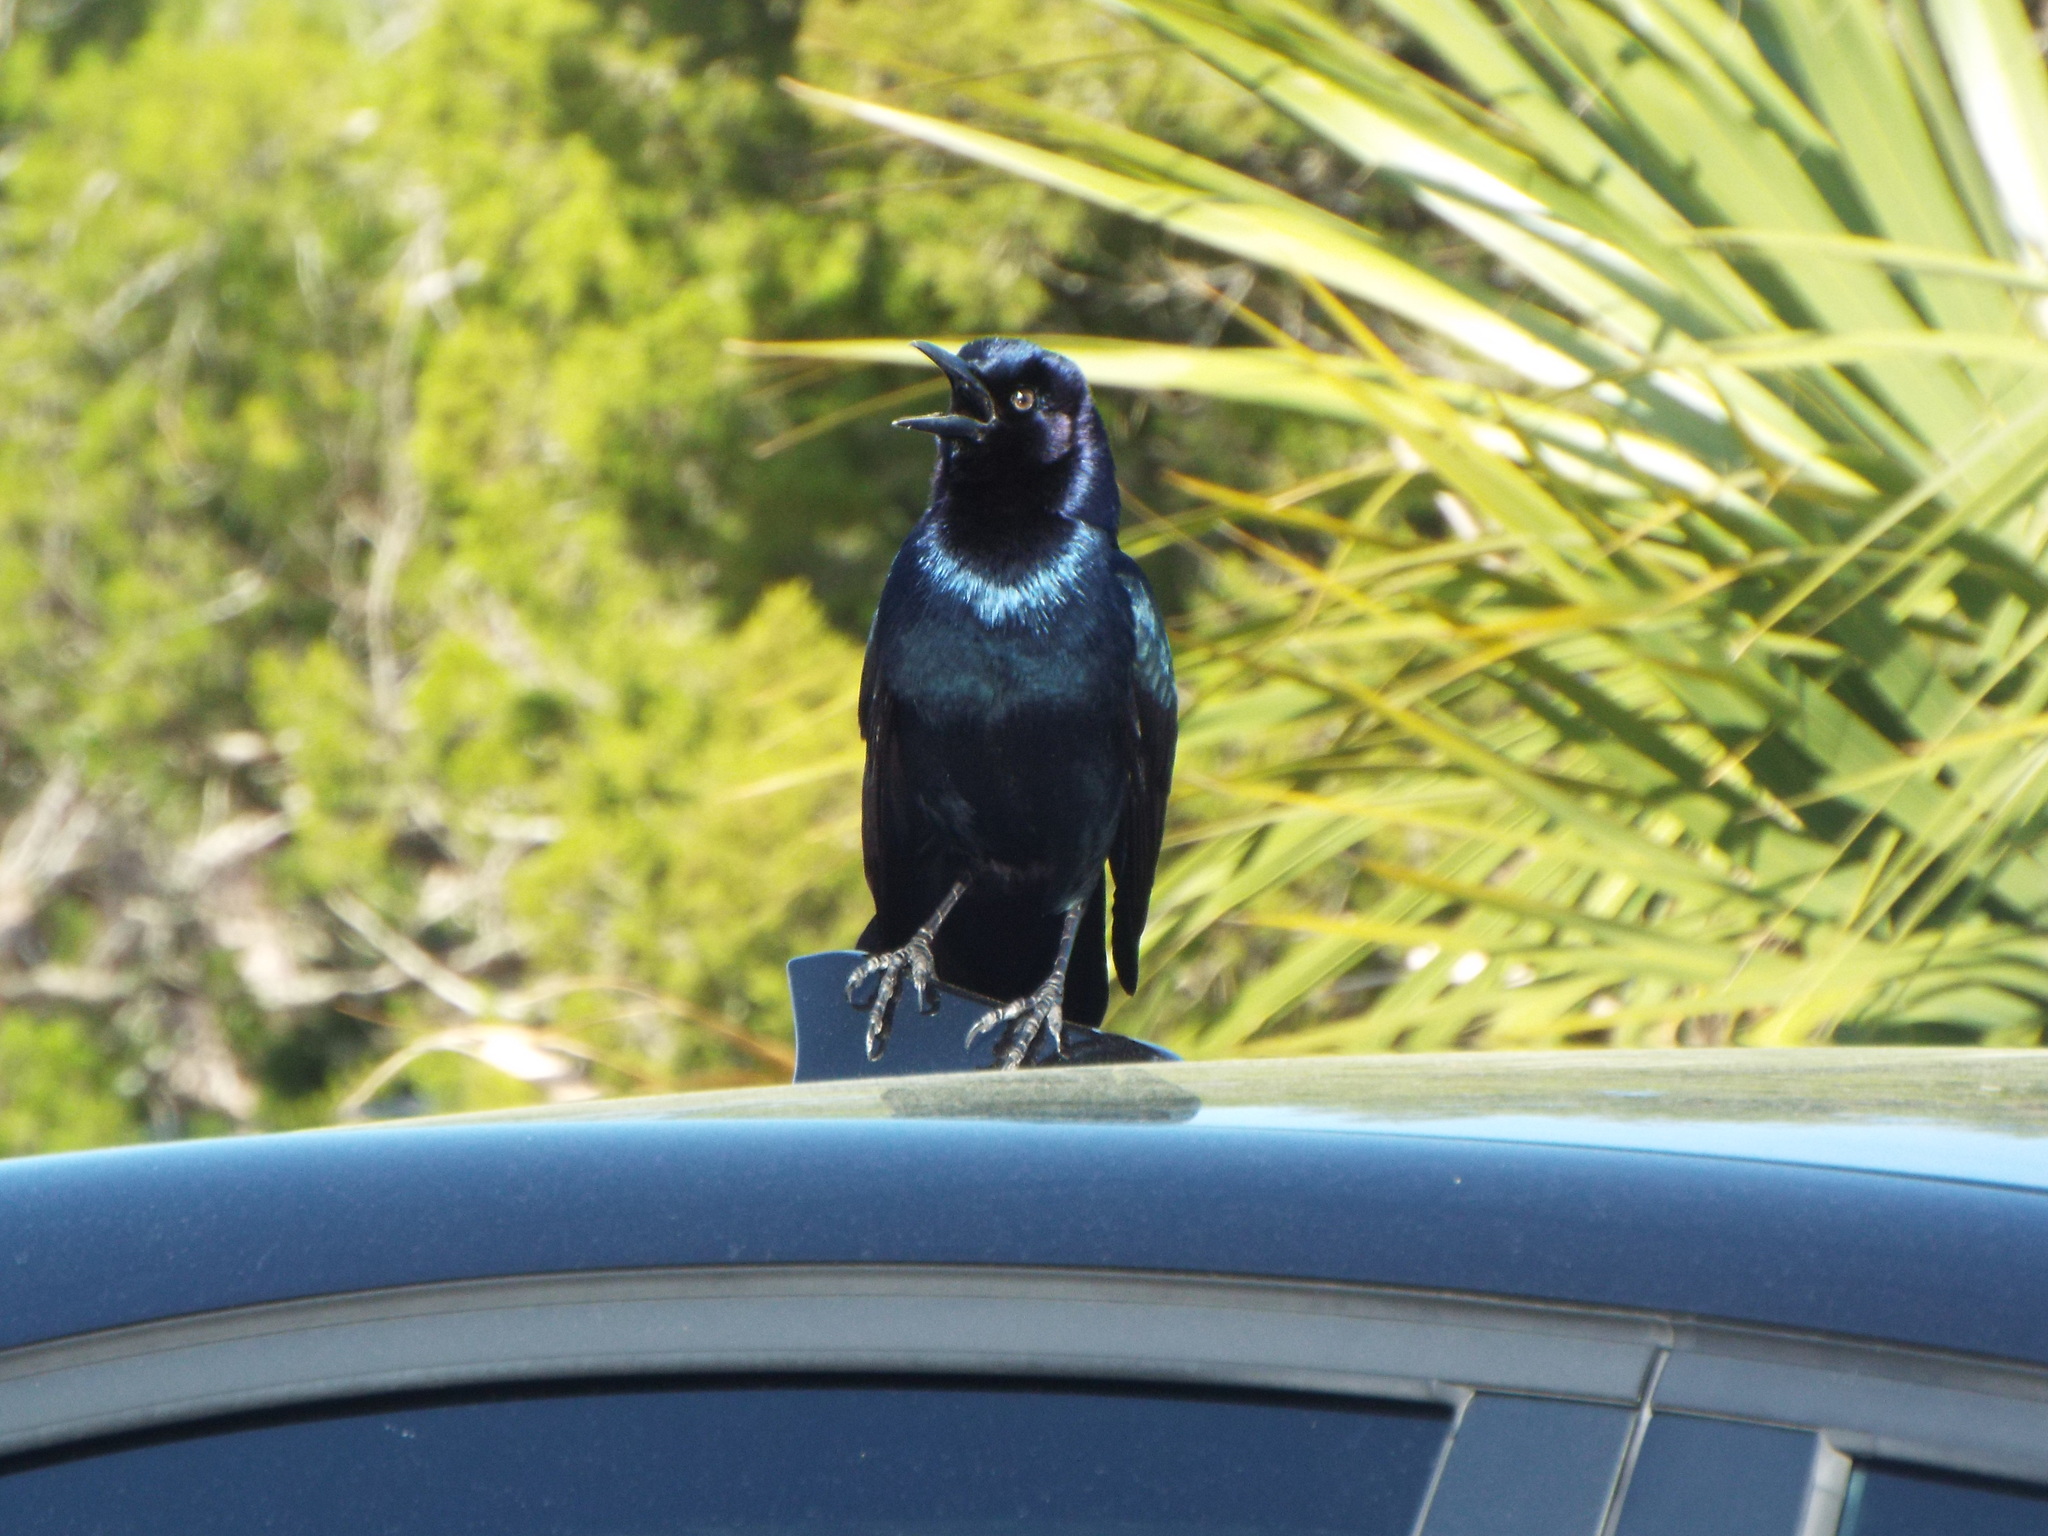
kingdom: Animalia
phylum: Chordata
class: Aves
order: Passeriformes
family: Icteridae
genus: Quiscalus
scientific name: Quiscalus major
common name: Boat-tailed grackle
